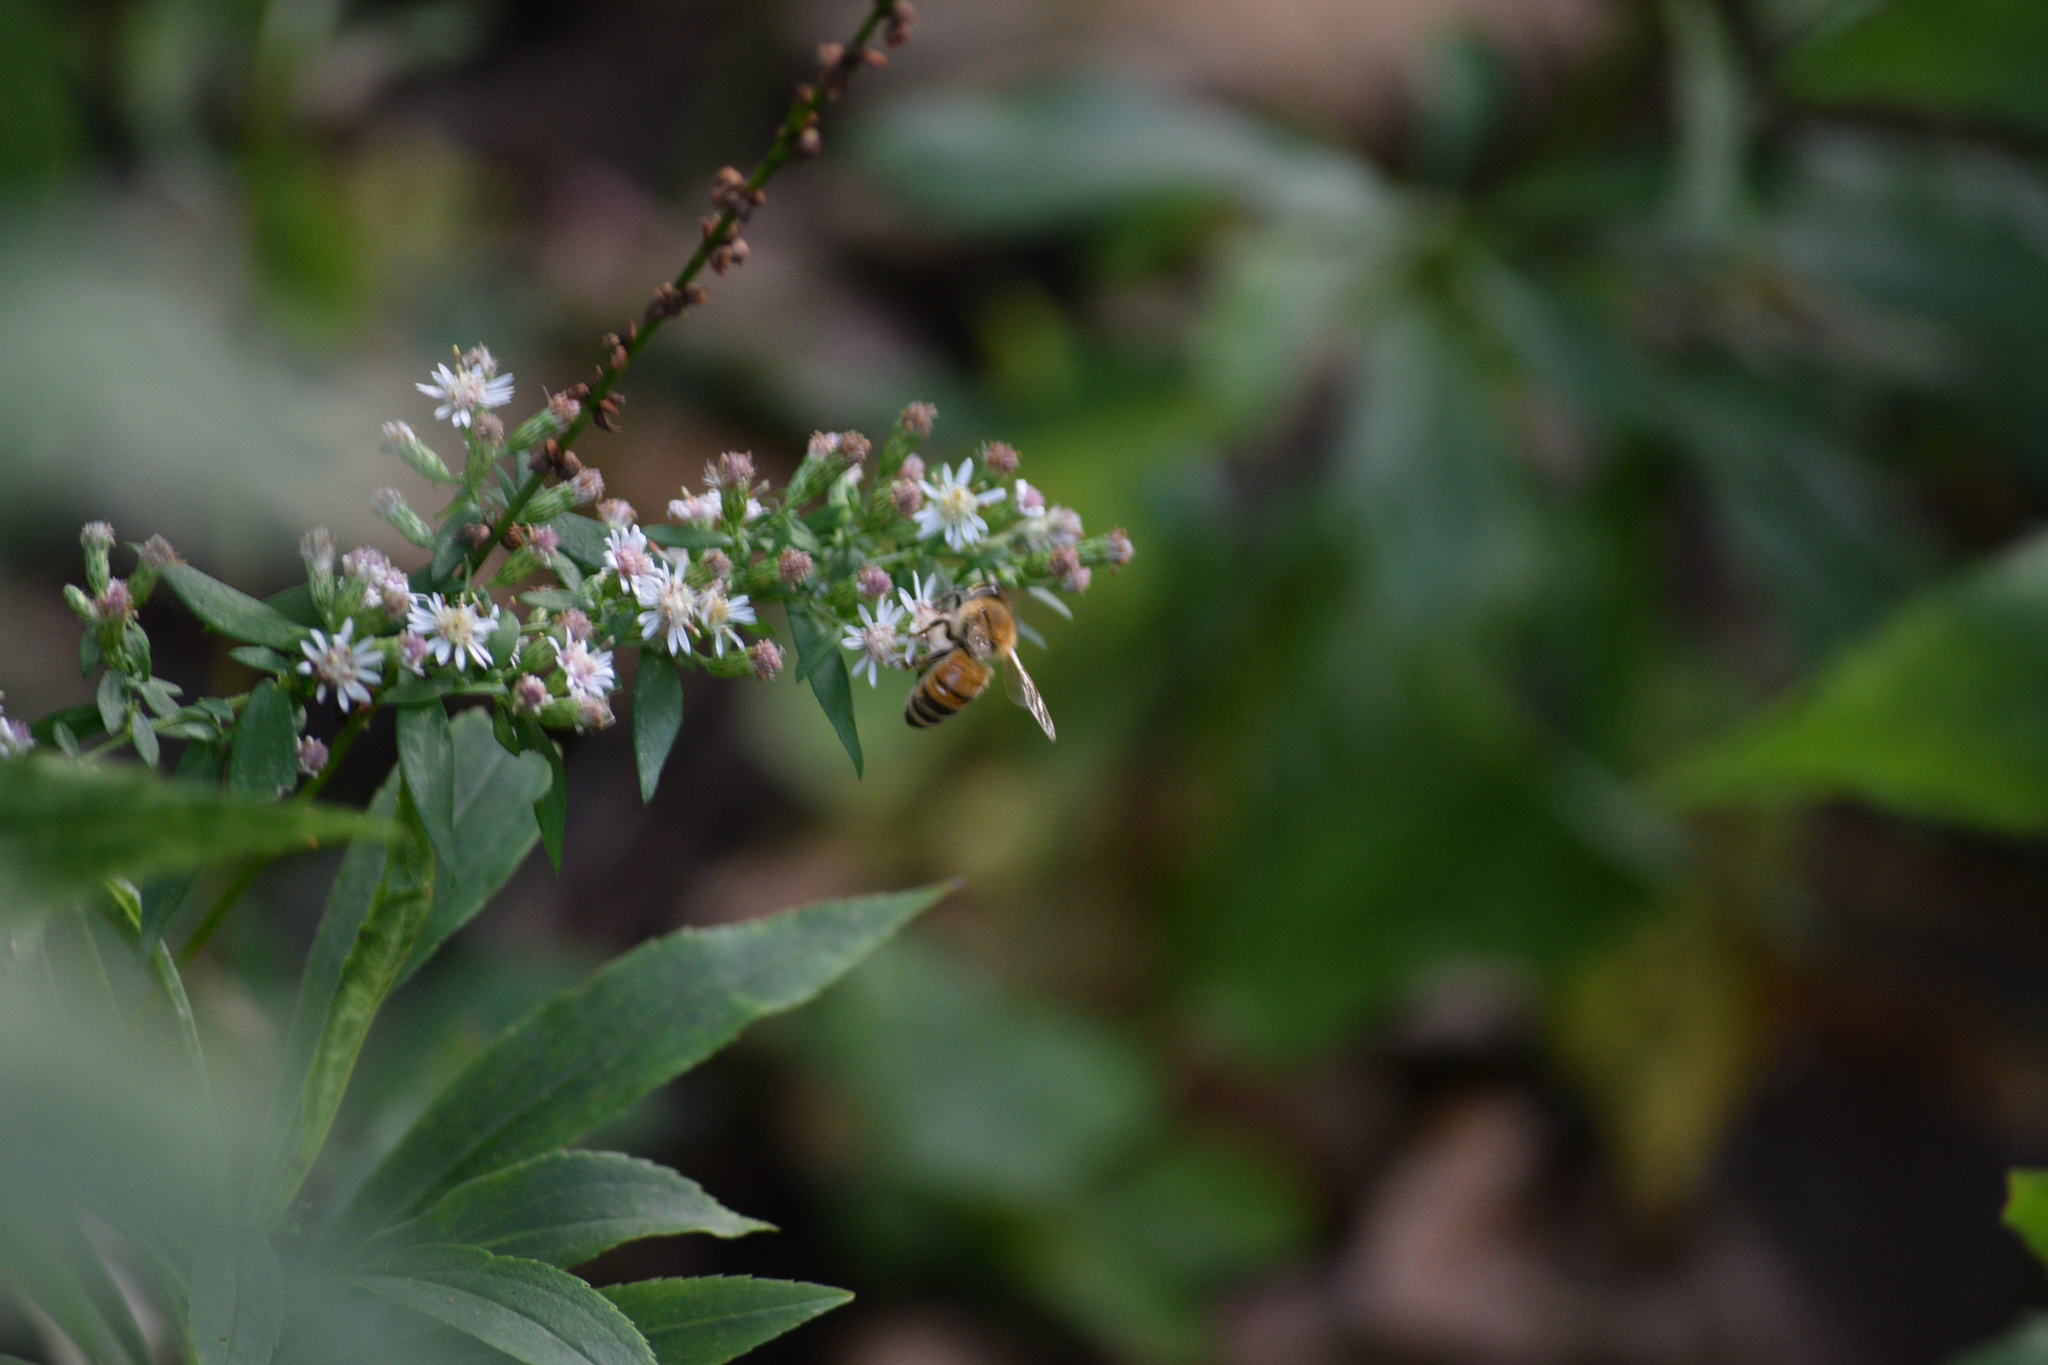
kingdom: Animalia
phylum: Arthropoda
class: Insecta
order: Hymenoptera
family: Apidae
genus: Apis
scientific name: Apis mellifera
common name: Honey bee
